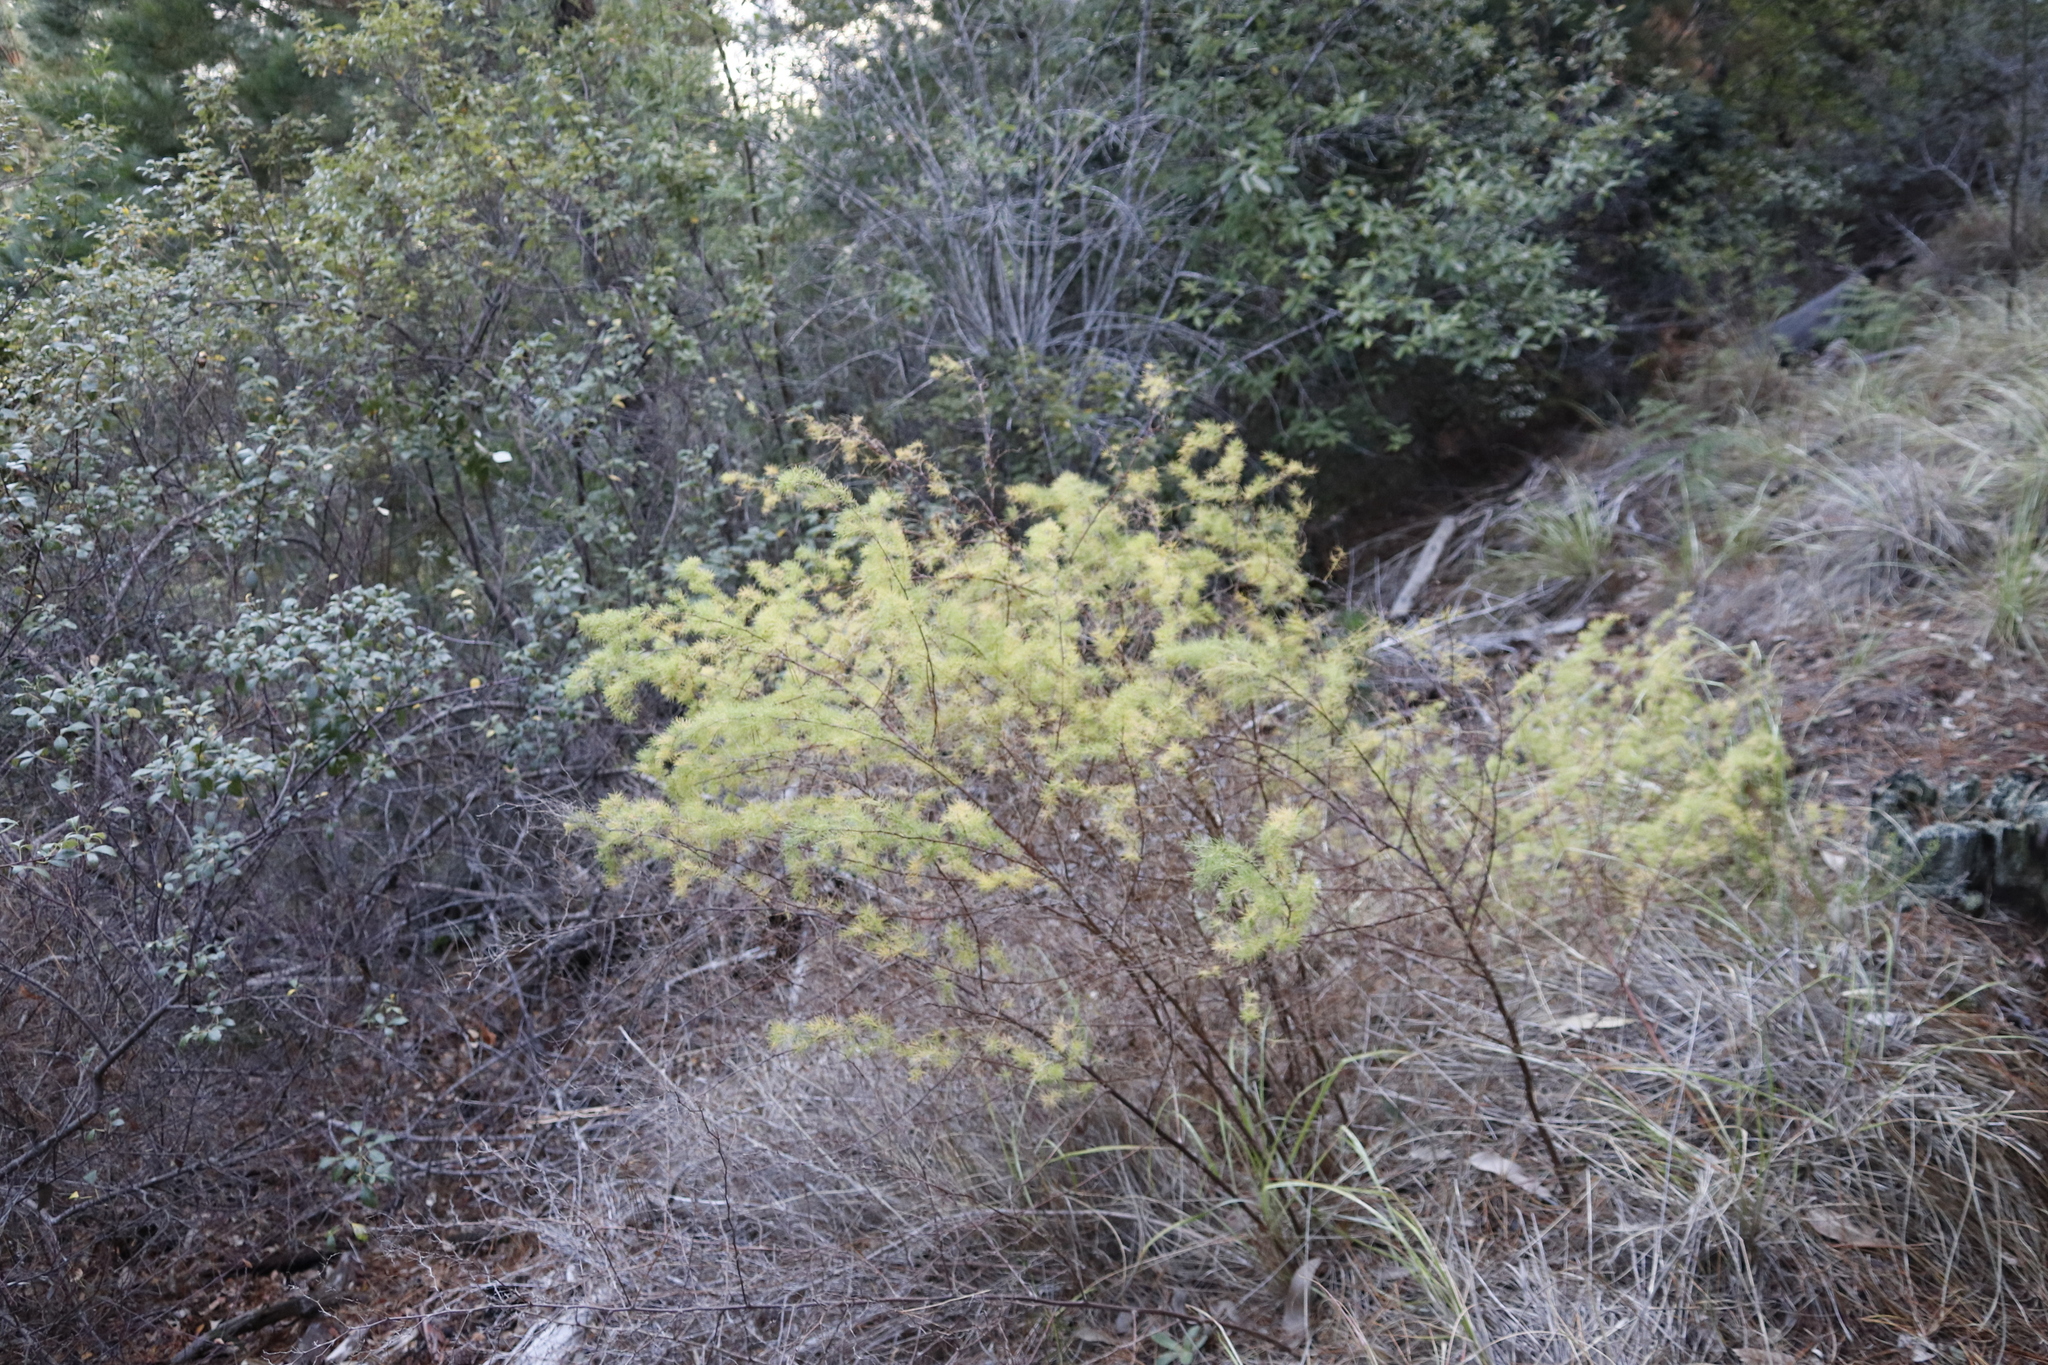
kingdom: Plantae
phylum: Tracheophyta
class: Liliopsida
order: Asparagales
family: Asparagaceae
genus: Asparagus
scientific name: Asparagus rubicundus
